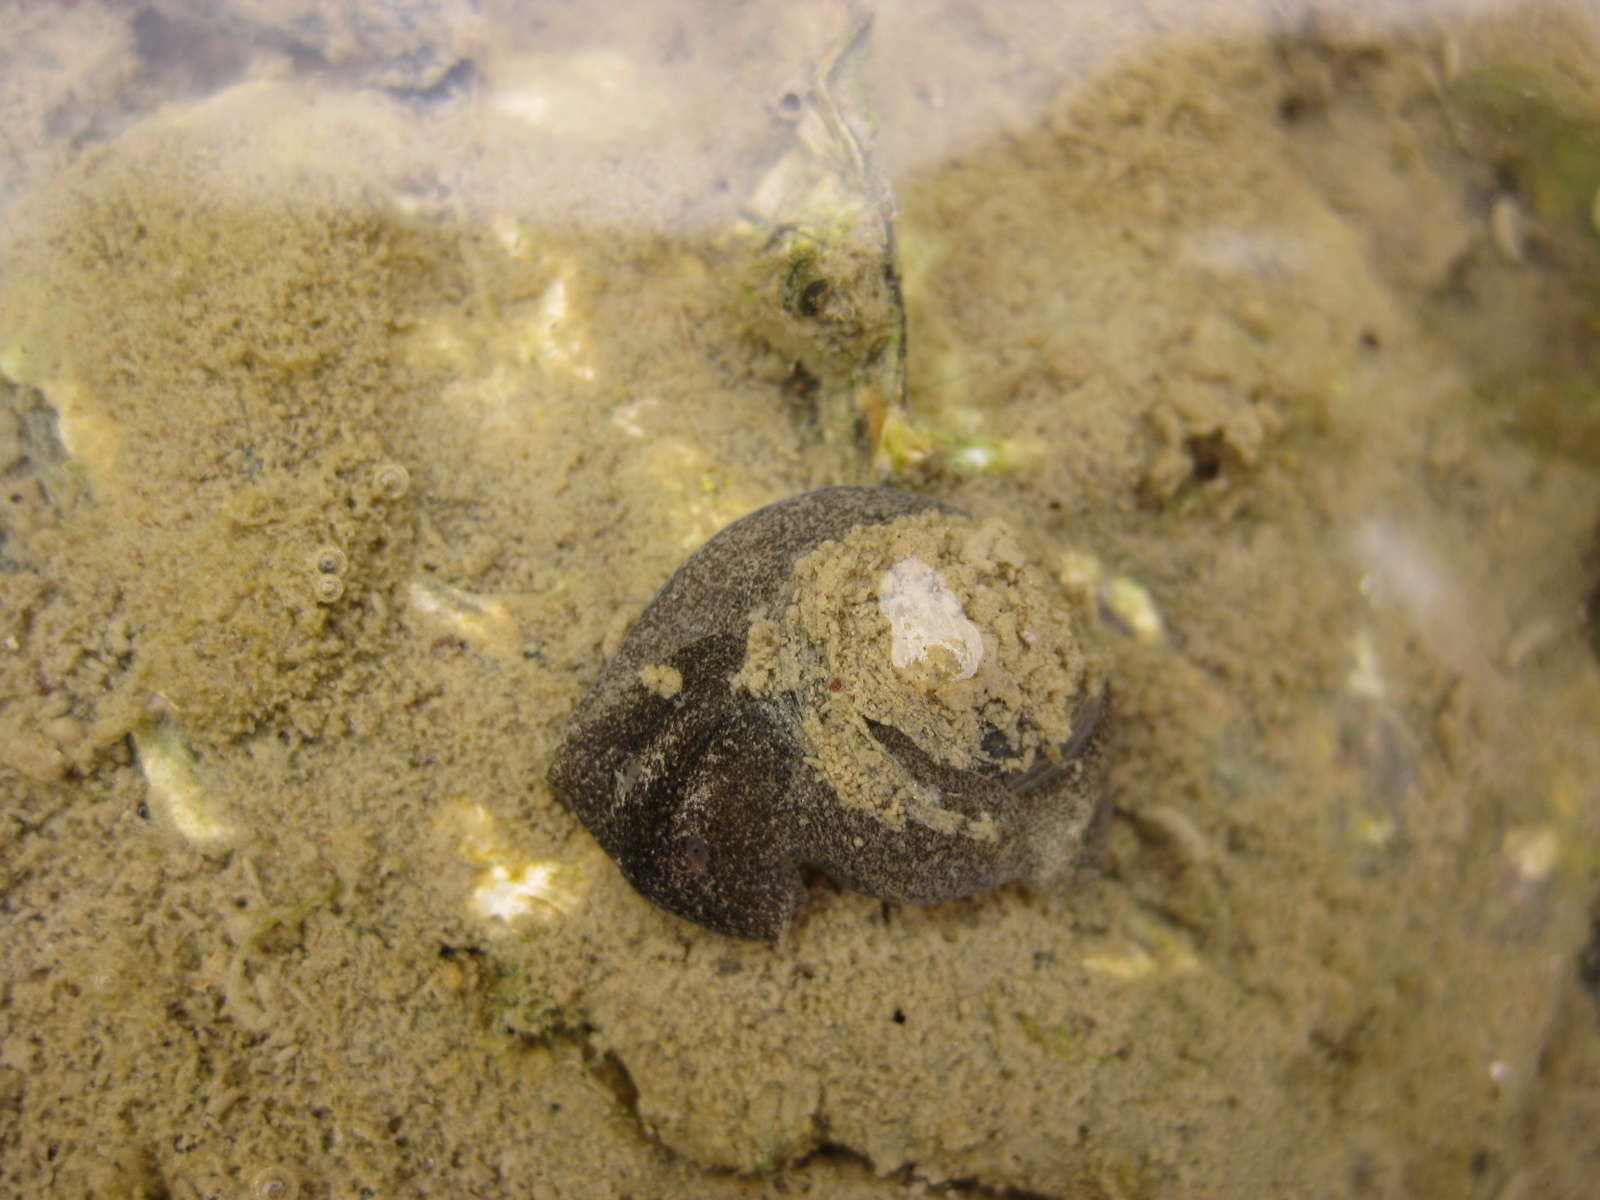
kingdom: Animalia
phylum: Mollusca
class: Gastropoda
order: Cephalaspidea
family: Haminoeidae
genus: Papawera
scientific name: Papawera zelandiae
